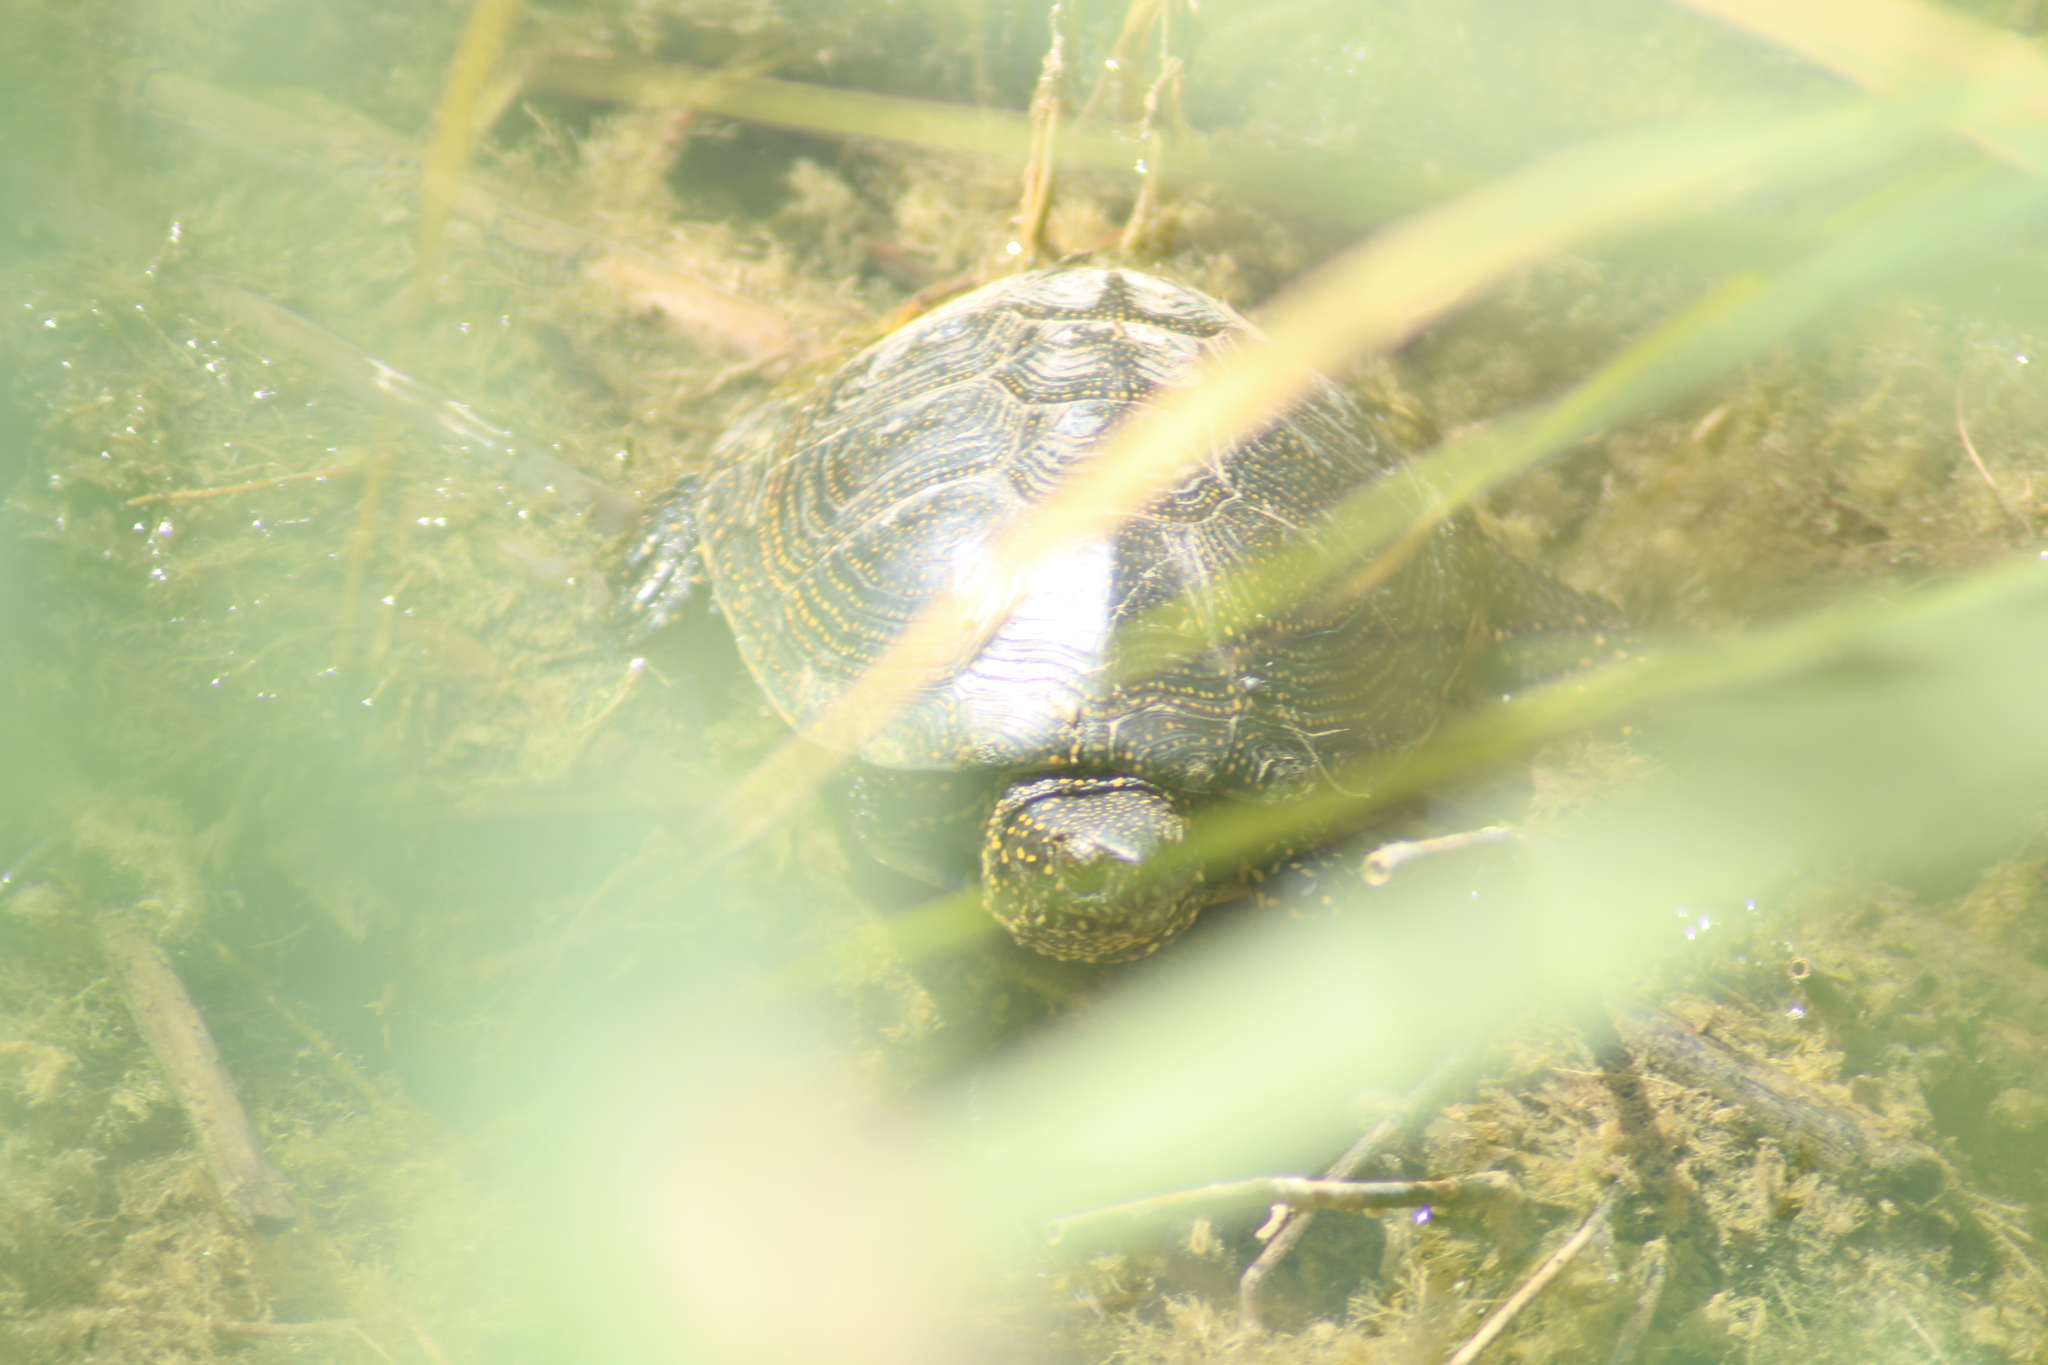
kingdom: Animalia
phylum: Chordata
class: Testudines
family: Emydidae
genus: Emys
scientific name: Emys orbicularis
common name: European pond turtle
